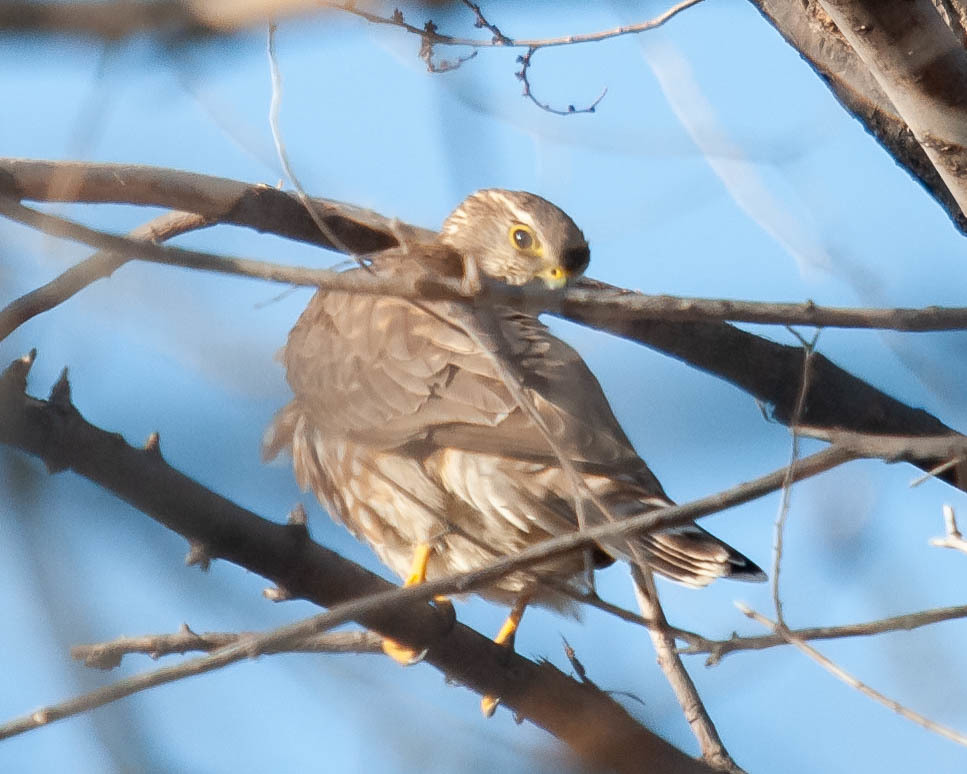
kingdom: Animalia
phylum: Chordata
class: Aves
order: Falconiformes
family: Falconidae
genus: Falco
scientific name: Falco columbarius
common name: Merlin
